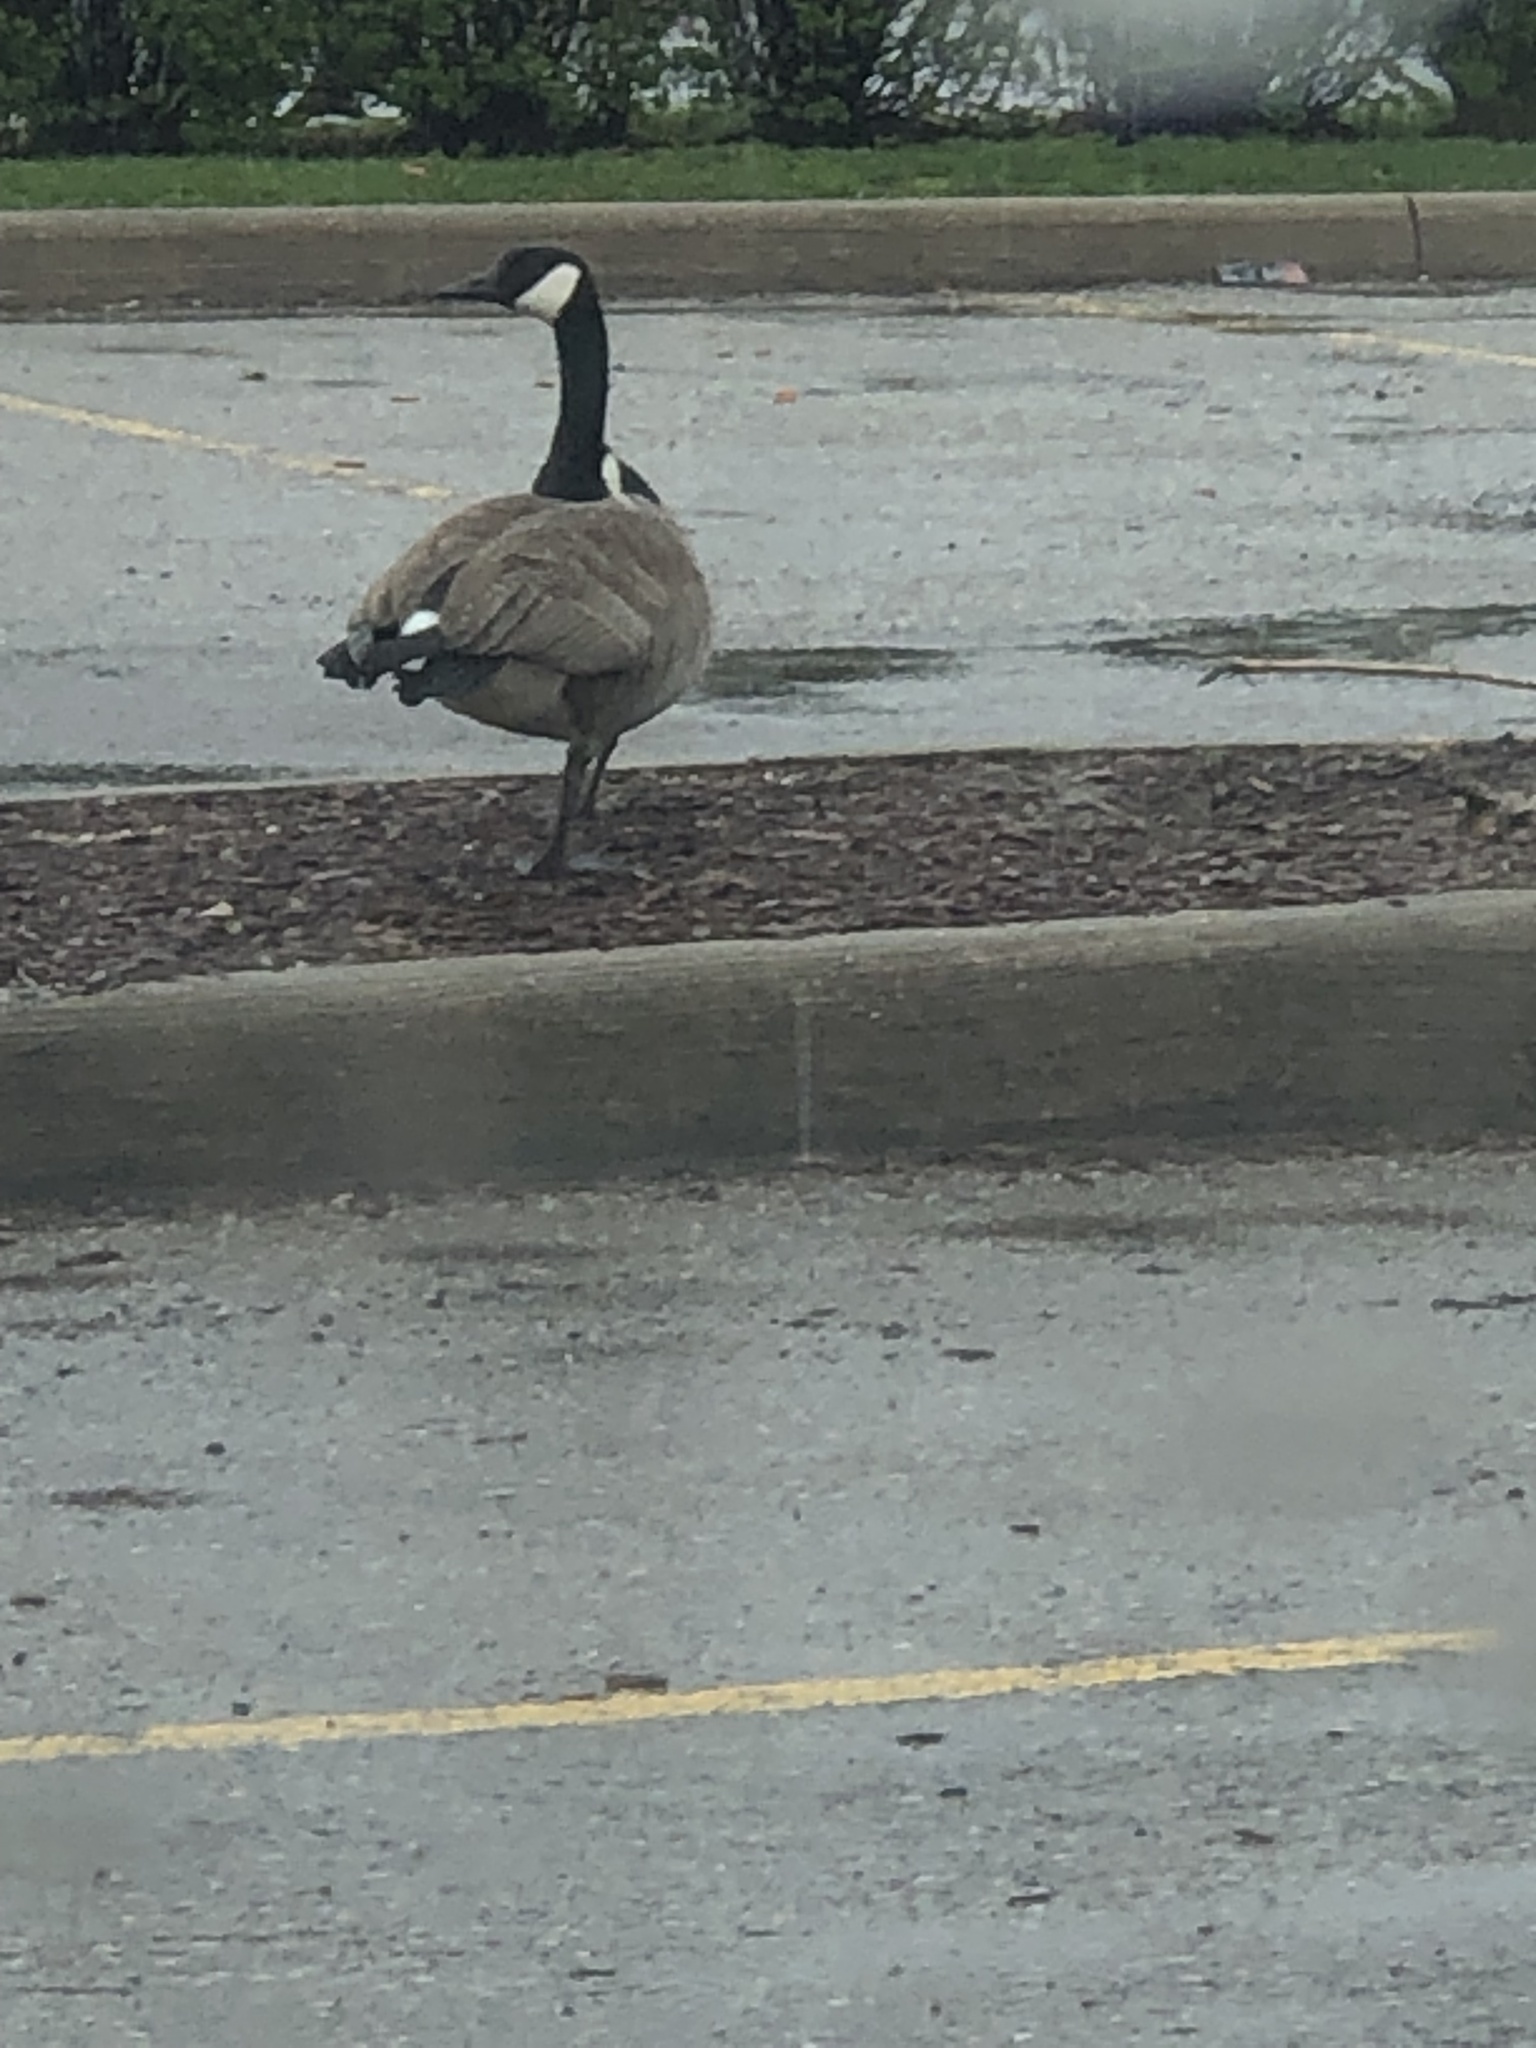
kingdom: Animalia
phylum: Chordata
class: Aves
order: Anseriformes
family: Anatidae
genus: Branta
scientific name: Branta canadensis
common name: Canada goose
